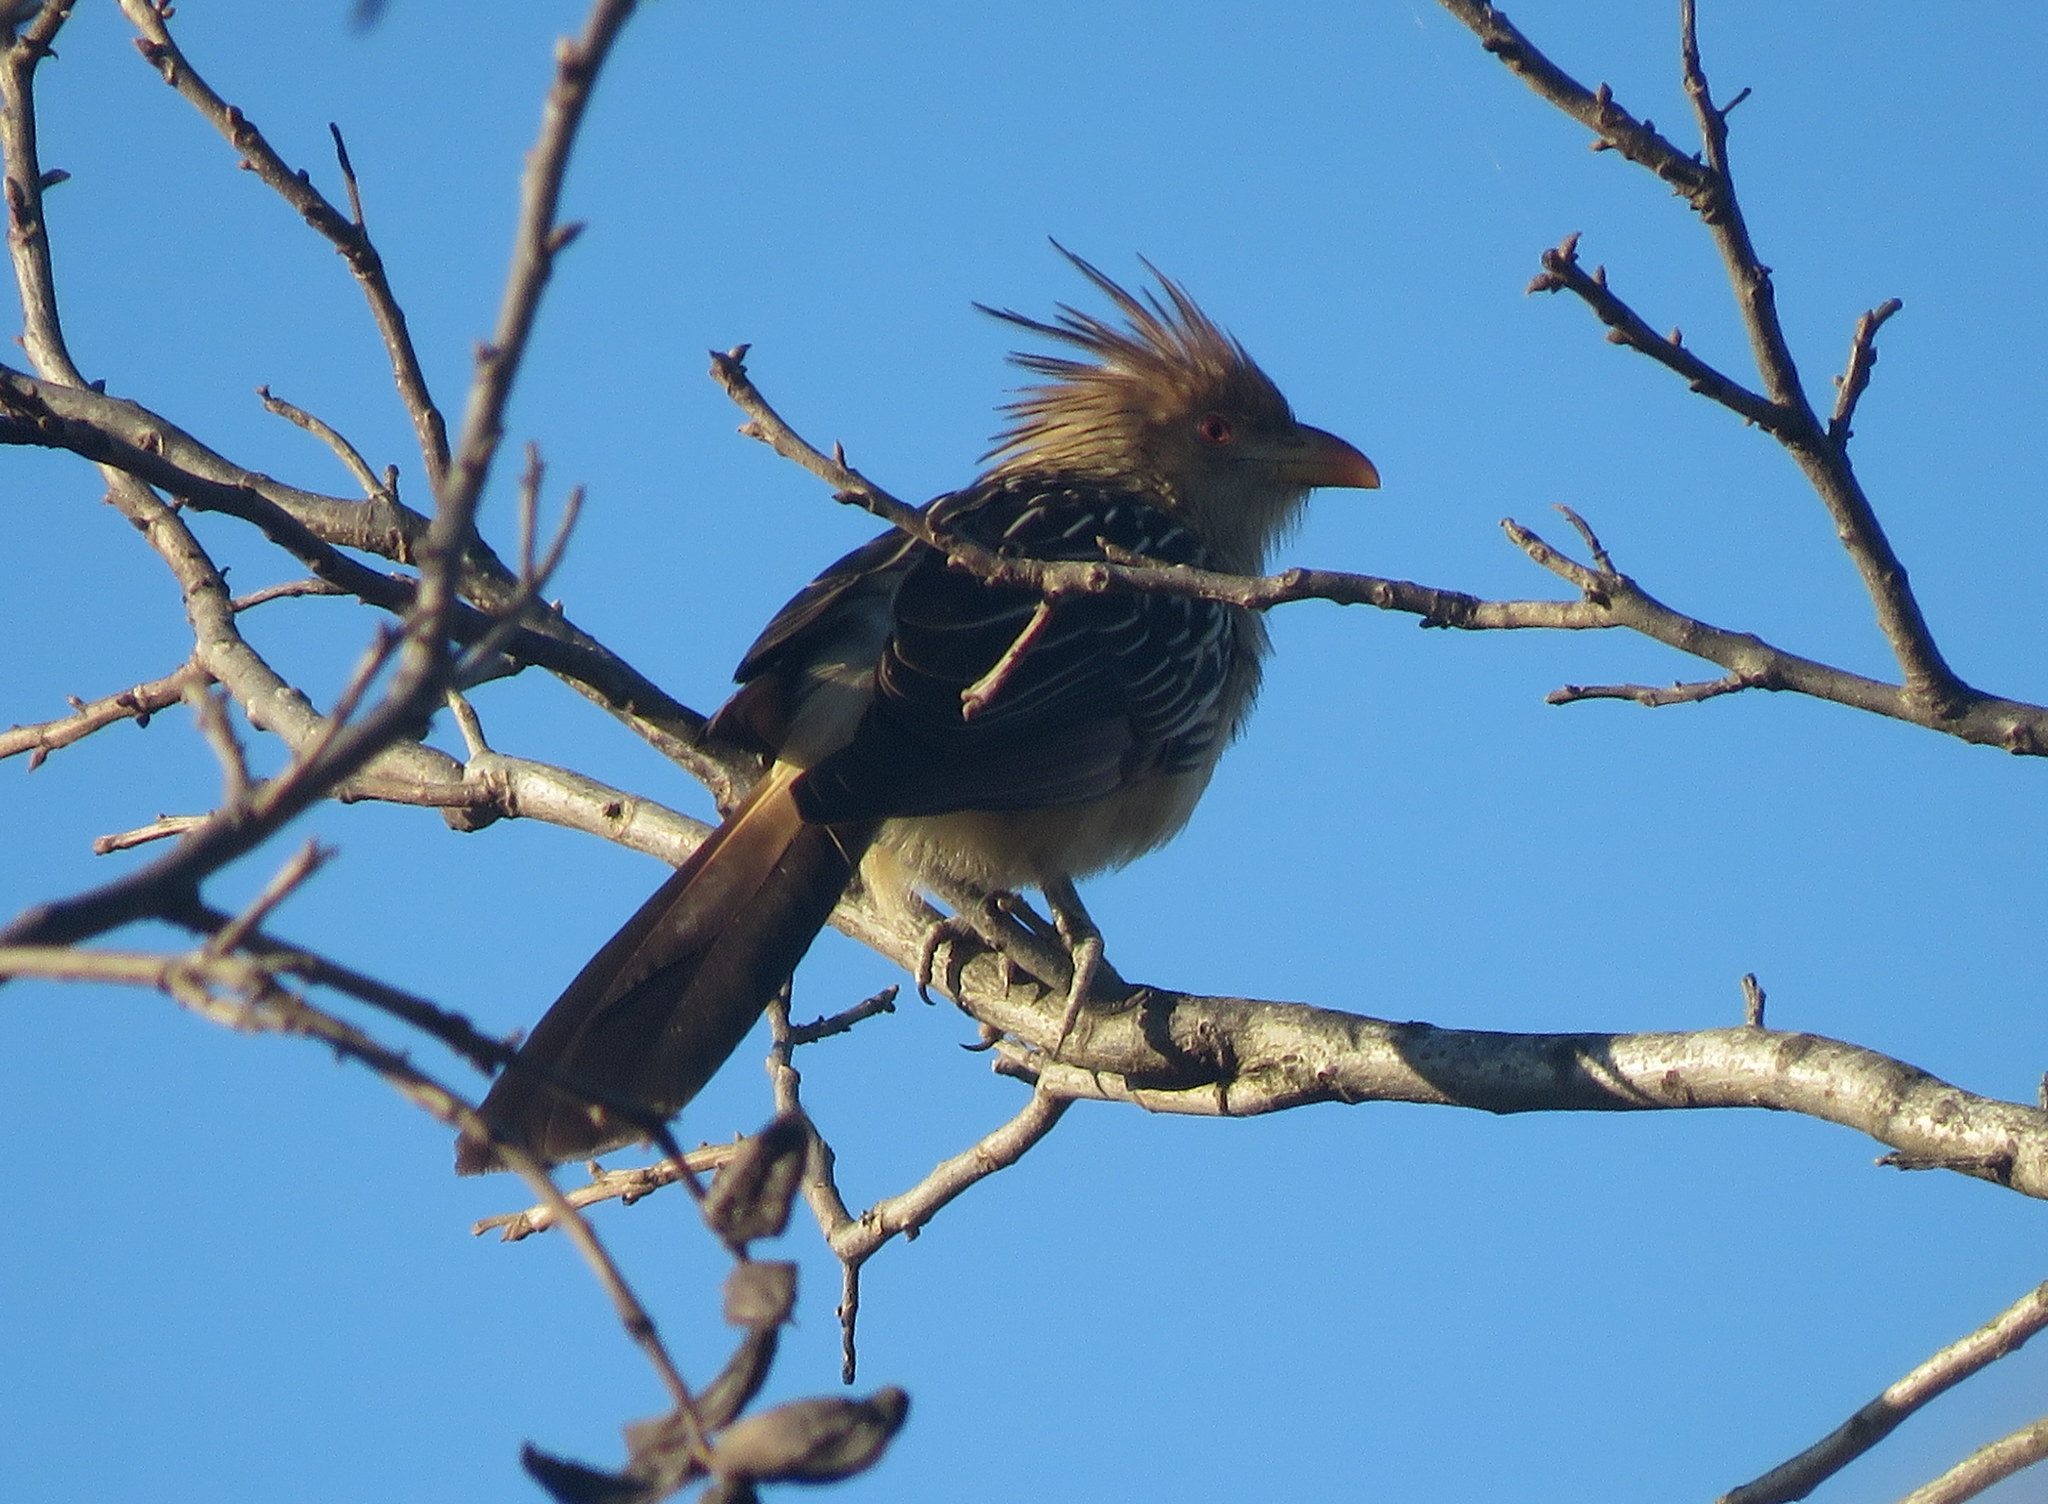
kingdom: Animalia
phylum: Chordata
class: Aves
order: Cuculiformes
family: Cuculidae
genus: Guira
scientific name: Guira guira
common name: Guira cuckoo
